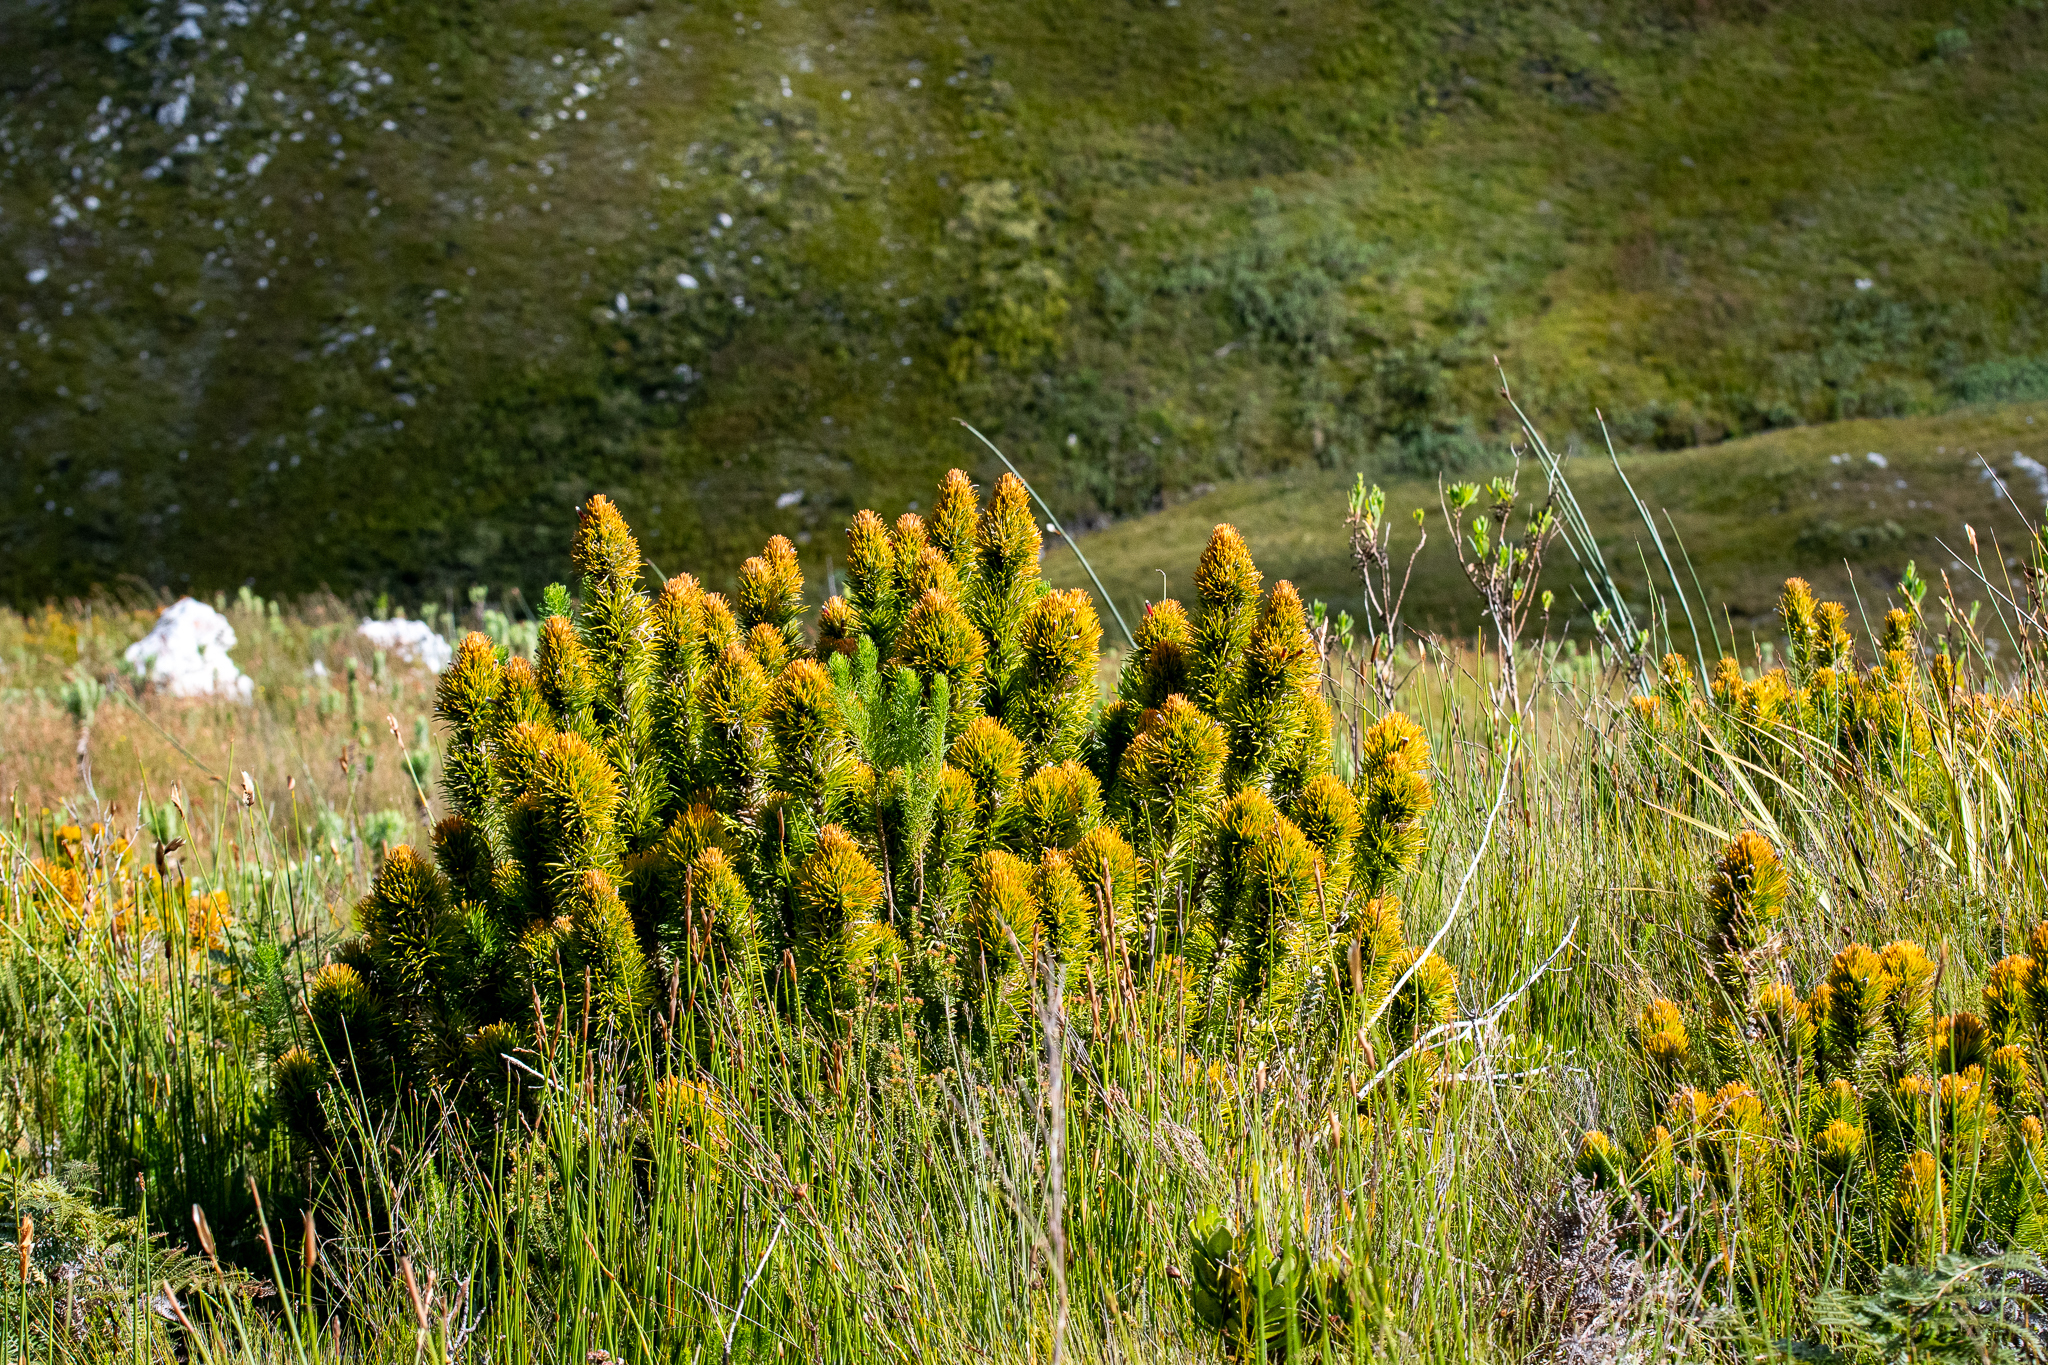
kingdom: Plantae
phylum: Tracheophyta
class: Magnoliopsida
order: Lamiales
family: Stilbaceae
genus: Retzia
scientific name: Retzia capensis
